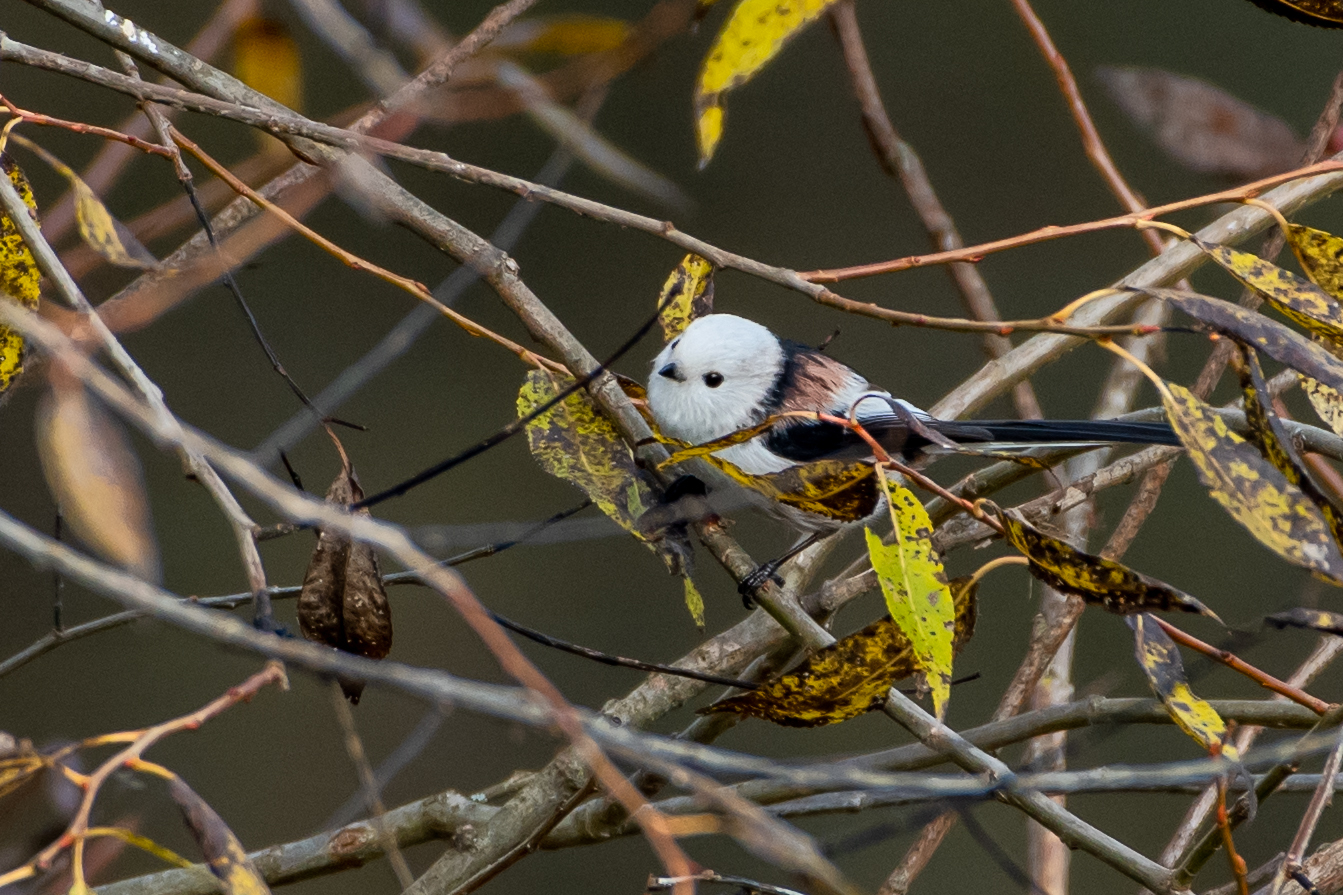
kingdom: Animalia
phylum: Chordata
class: Aves
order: Passeriformes
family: Aegithalidae
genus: Aegithalos
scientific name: Aegithalos caudatus
